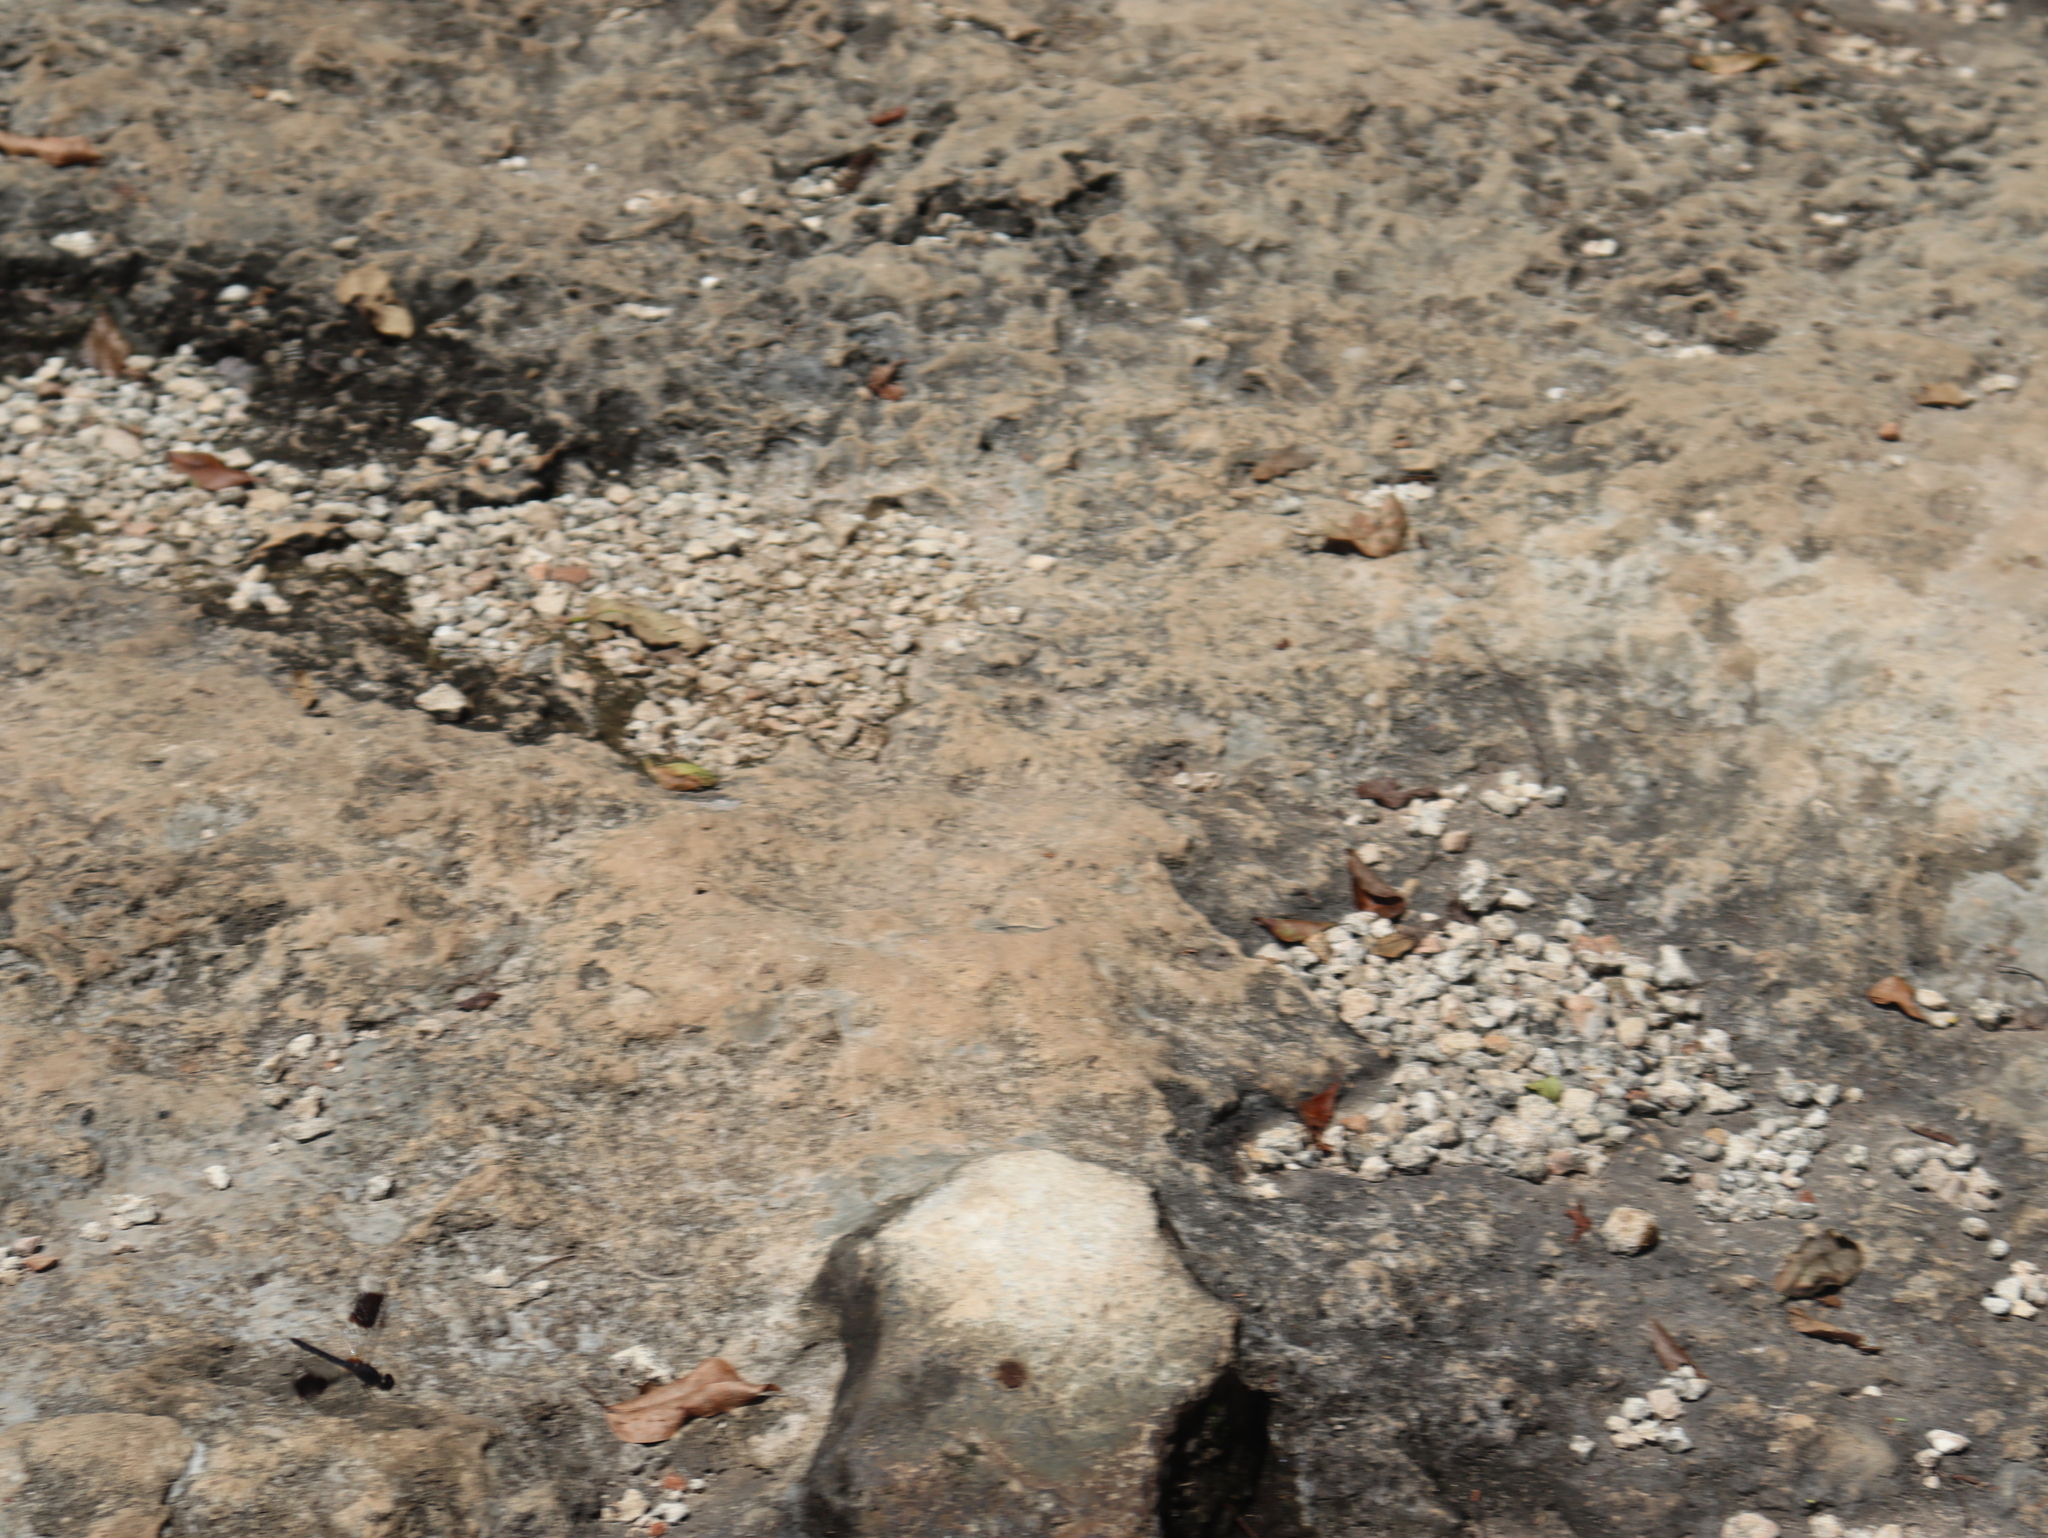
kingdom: Animalia
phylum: Arthropoda
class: Insecta
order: Odonata
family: Libellulidae
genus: Erythrodiplax
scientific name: Erythrodiplax umbrata
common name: Band-winged dragonlet
